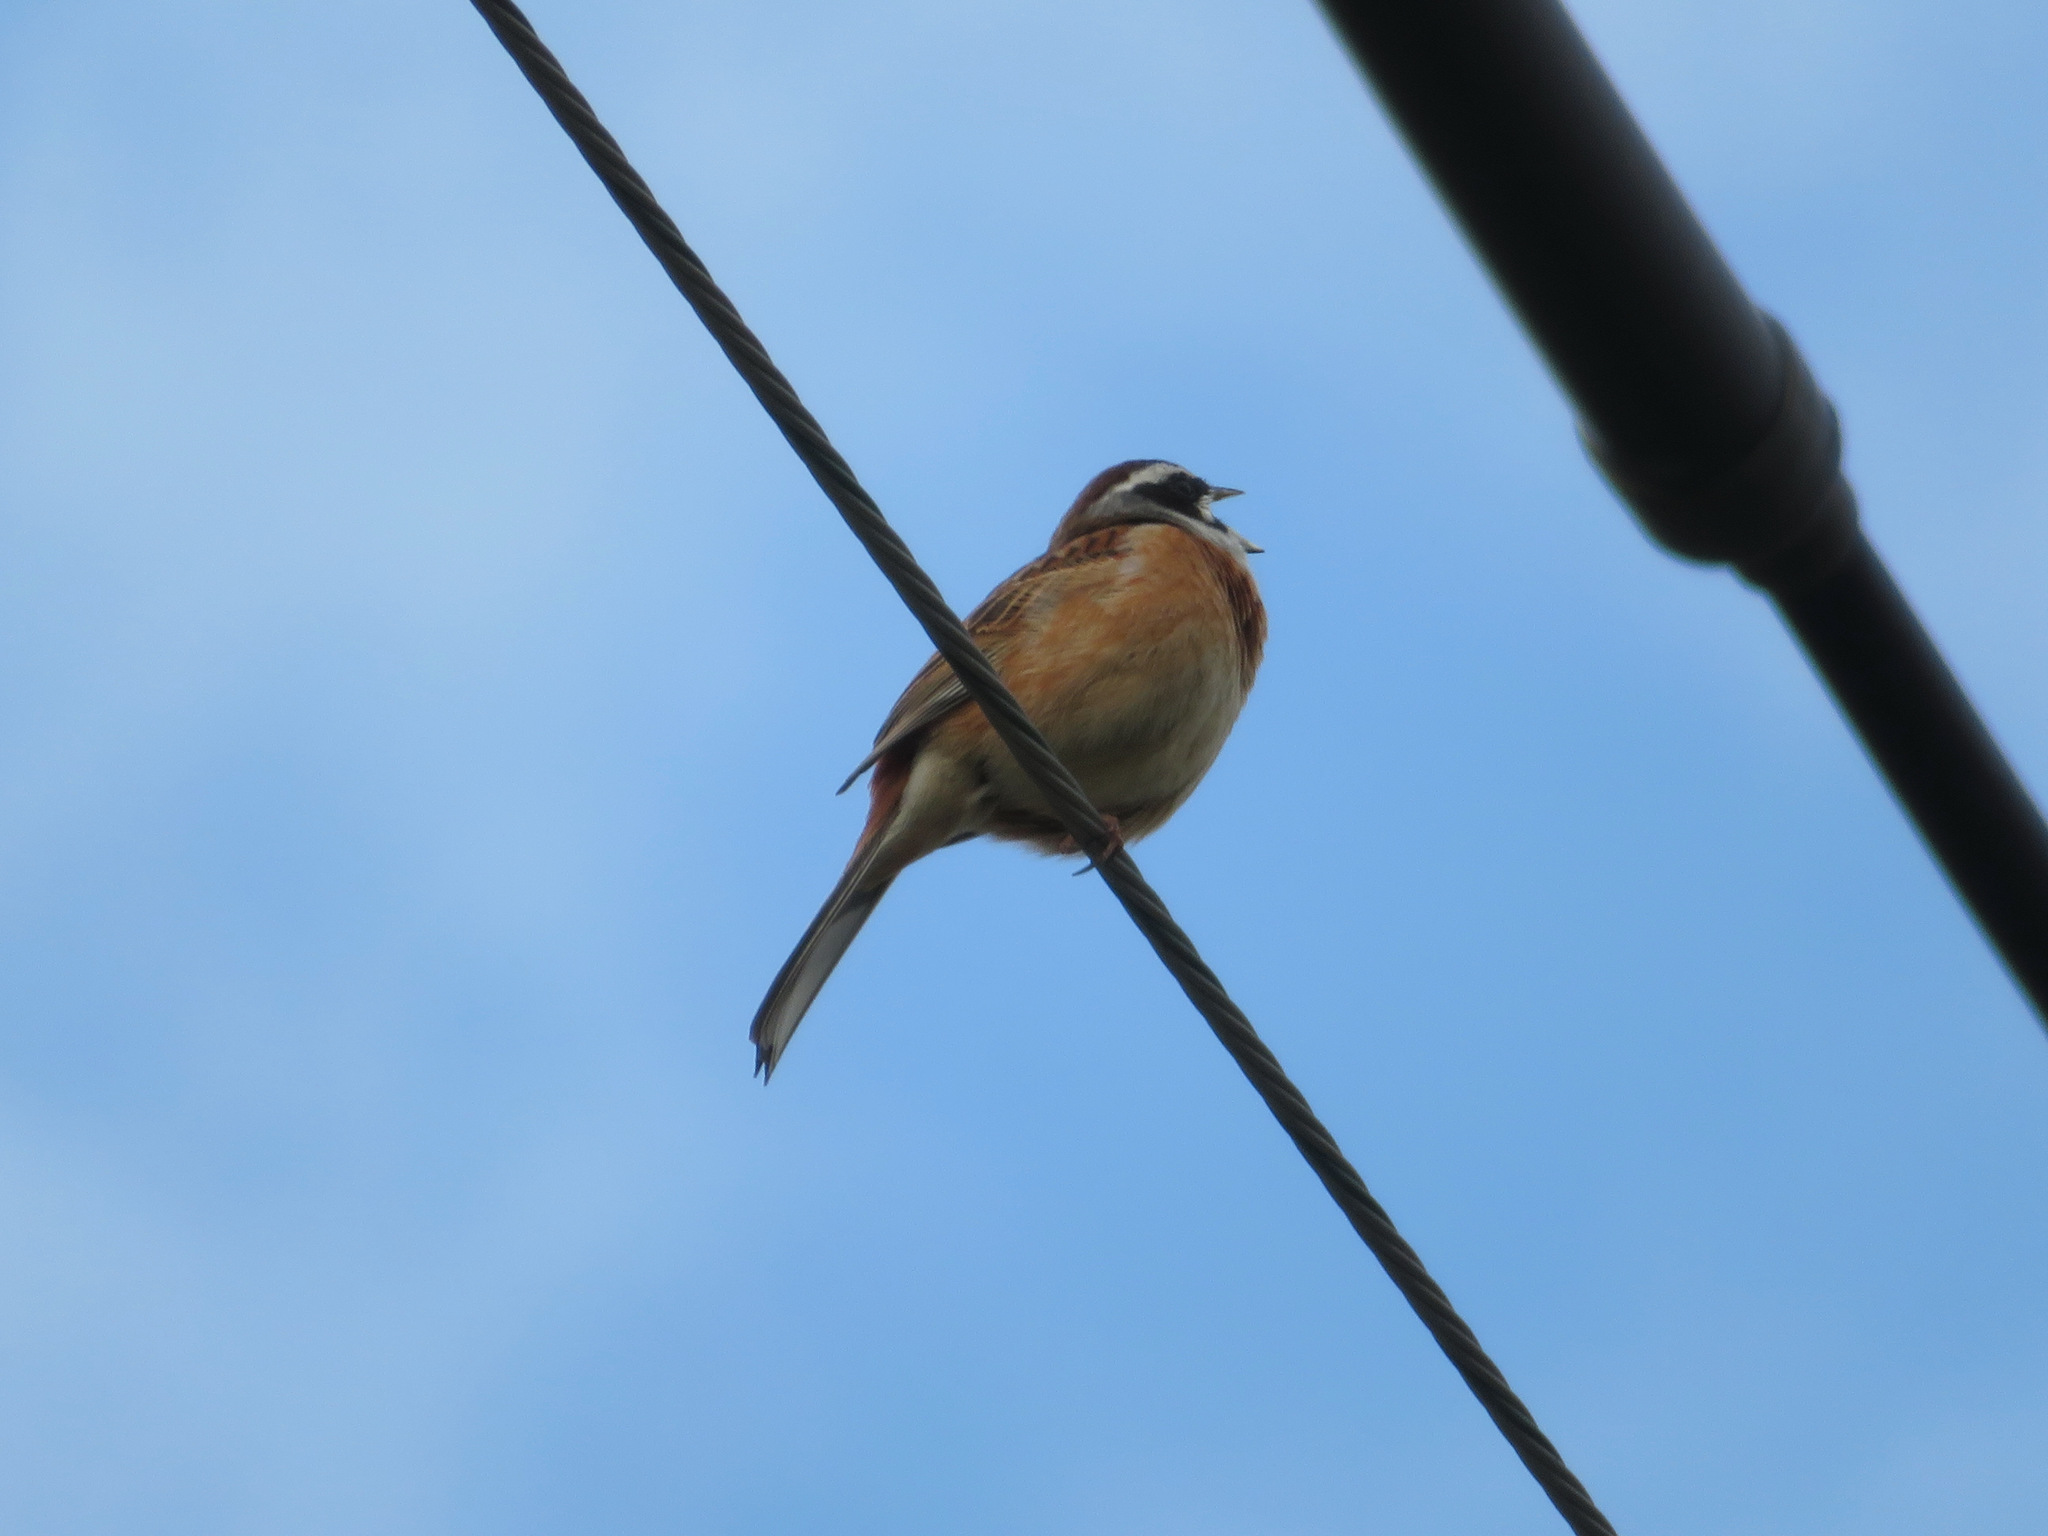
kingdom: Animalia
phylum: Chordata
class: Aves
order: Passeriformes
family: Emberizidae
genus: Emberiza
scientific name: Emberiza cioides
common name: Meadow bunting
